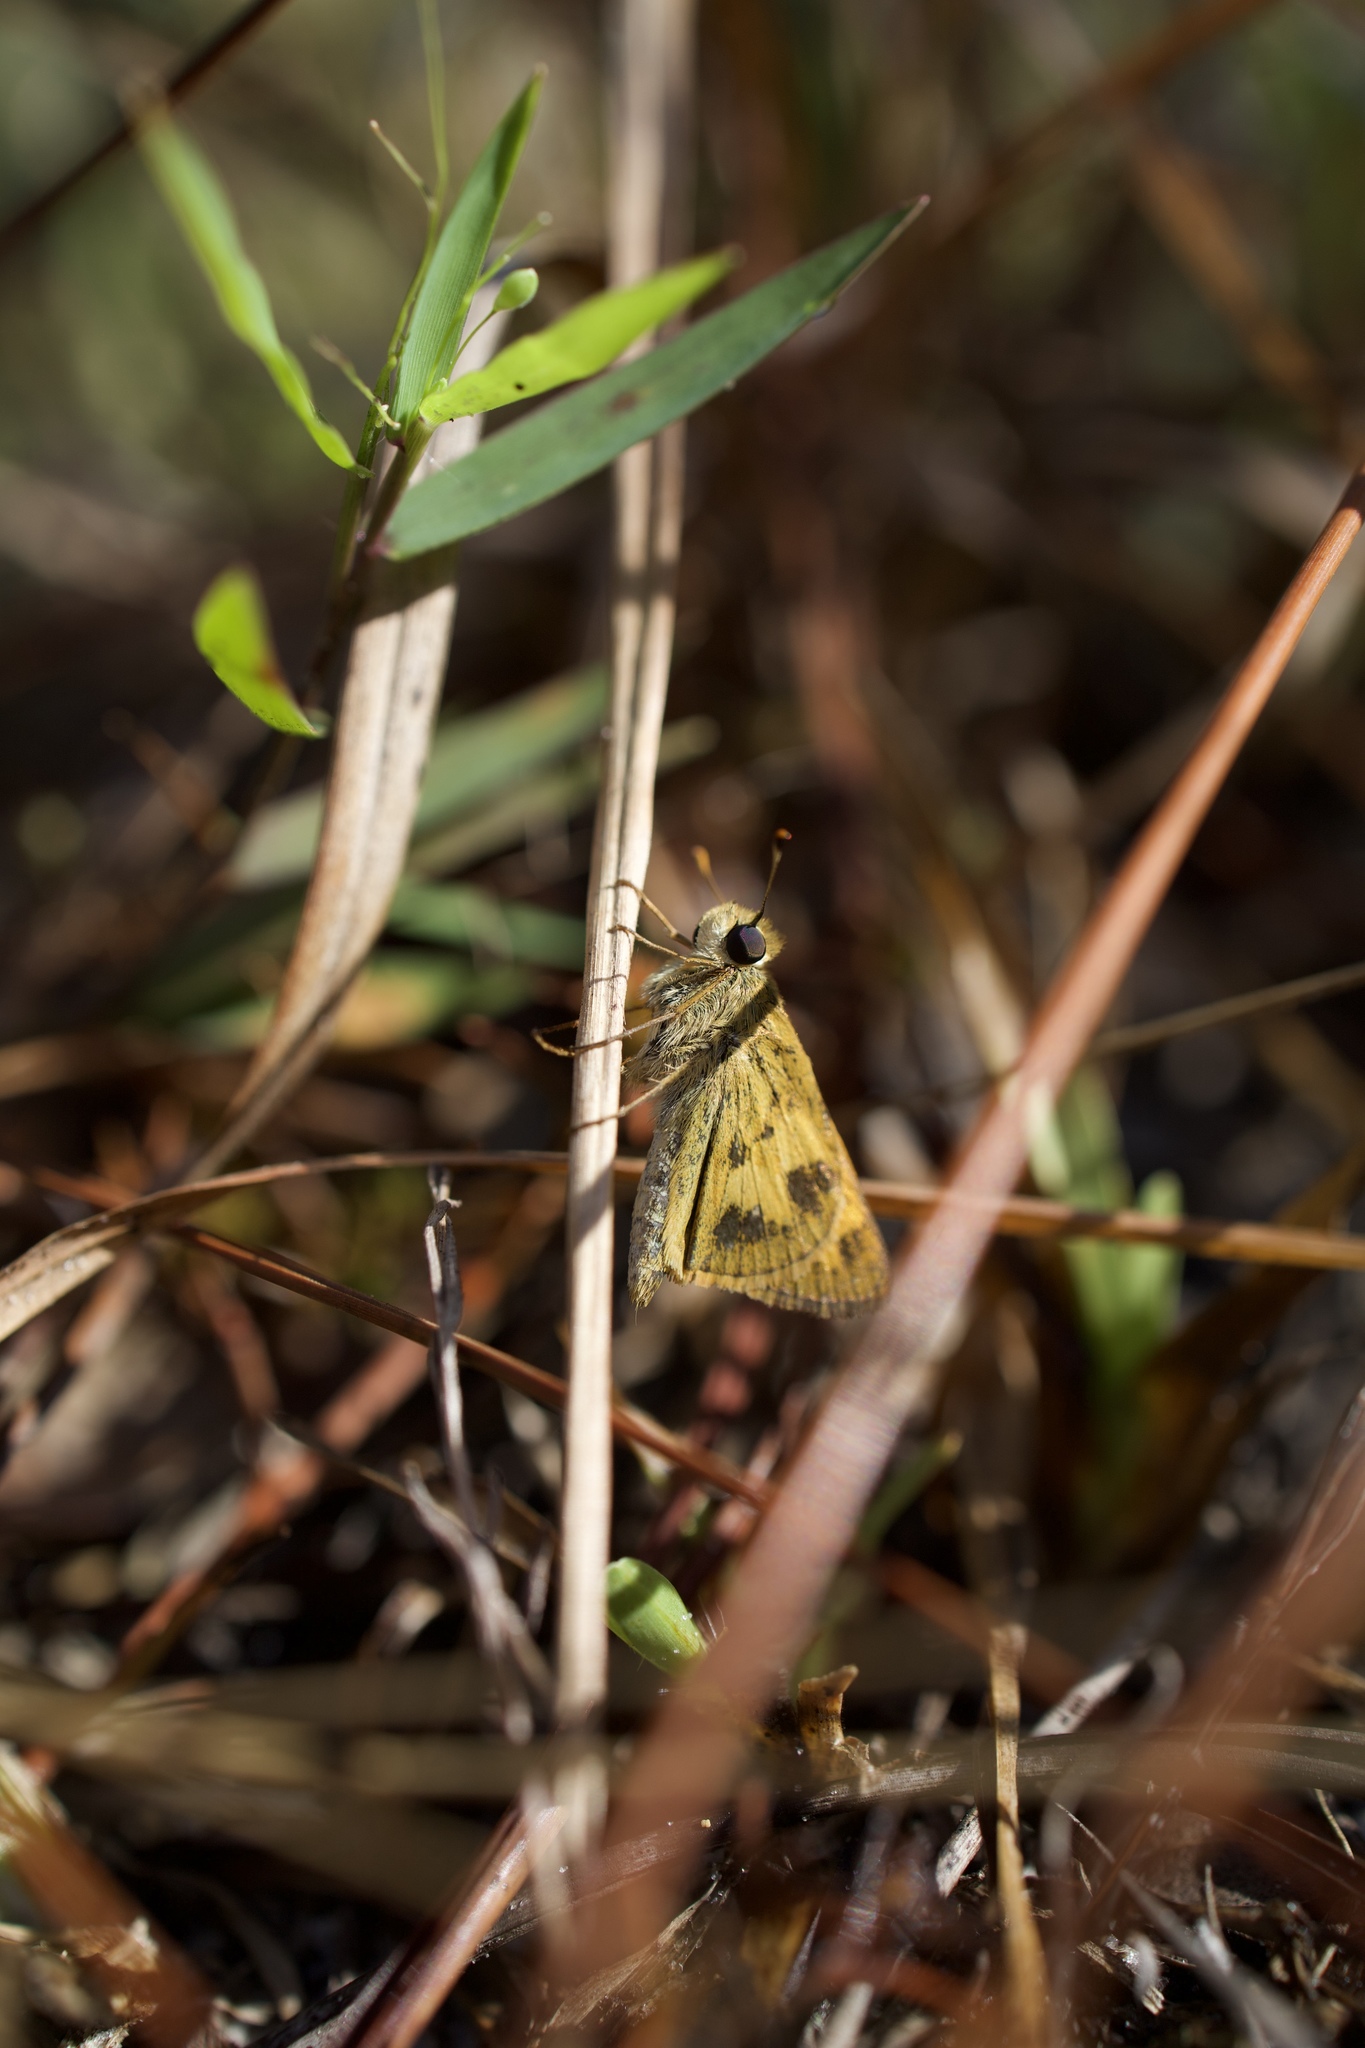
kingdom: Animalia
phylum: Arthropoda
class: Insecta
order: Lepidoptera
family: Hesperiidae
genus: Polites
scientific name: Polites vibex
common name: Whirlabout
